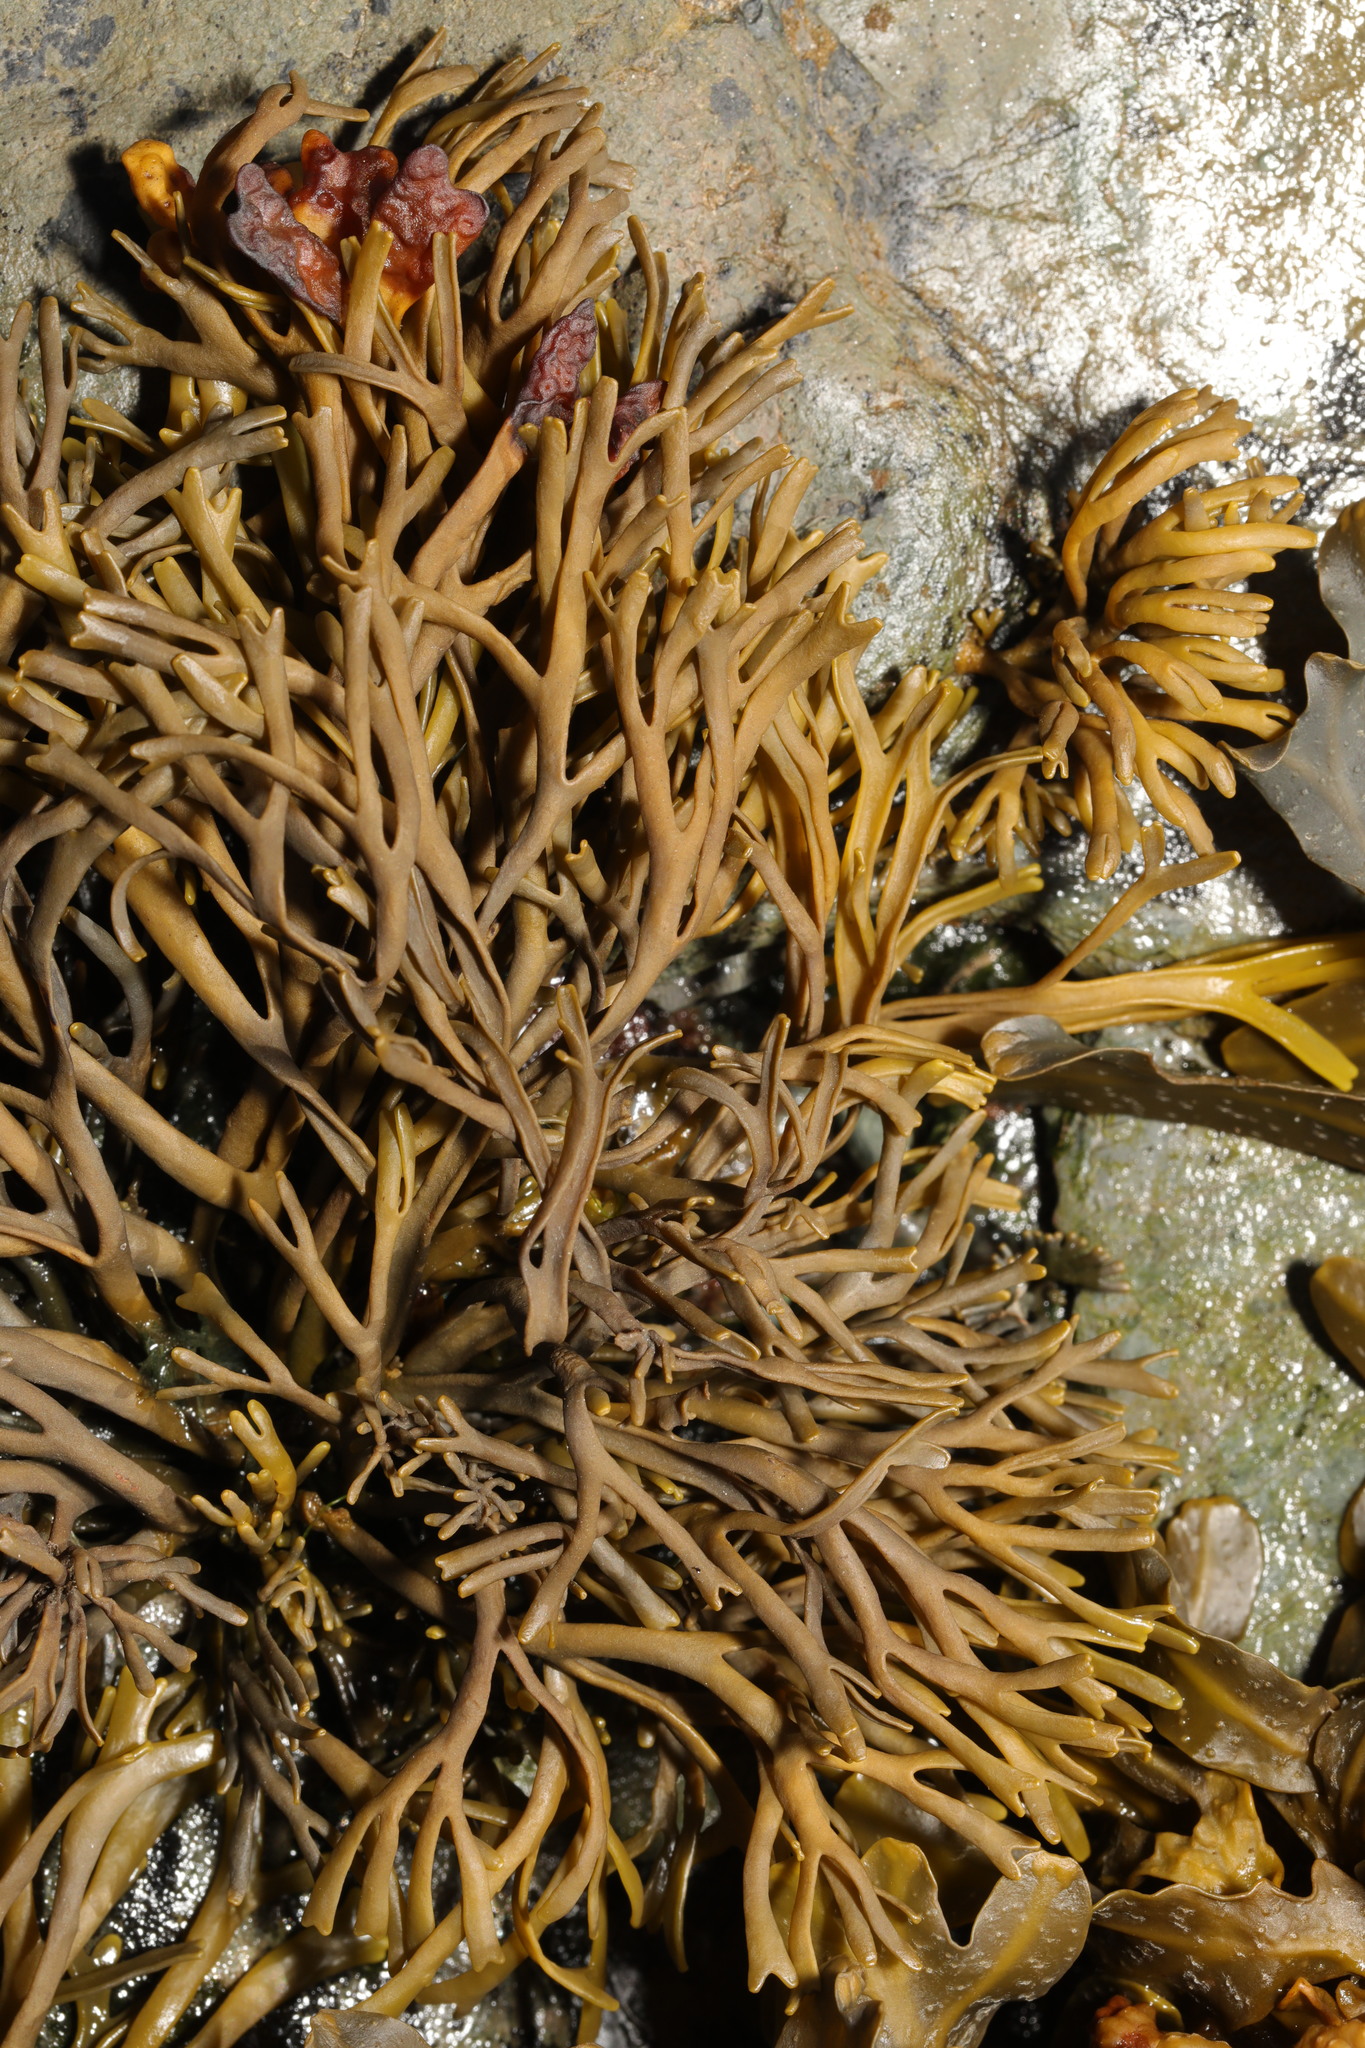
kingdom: Chromista
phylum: Ochrophyta
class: Phaeophyceae
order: Fucales
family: Fucaceae
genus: Pelvetia
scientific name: Pelvetia canaliculata
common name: Channelled wrack
